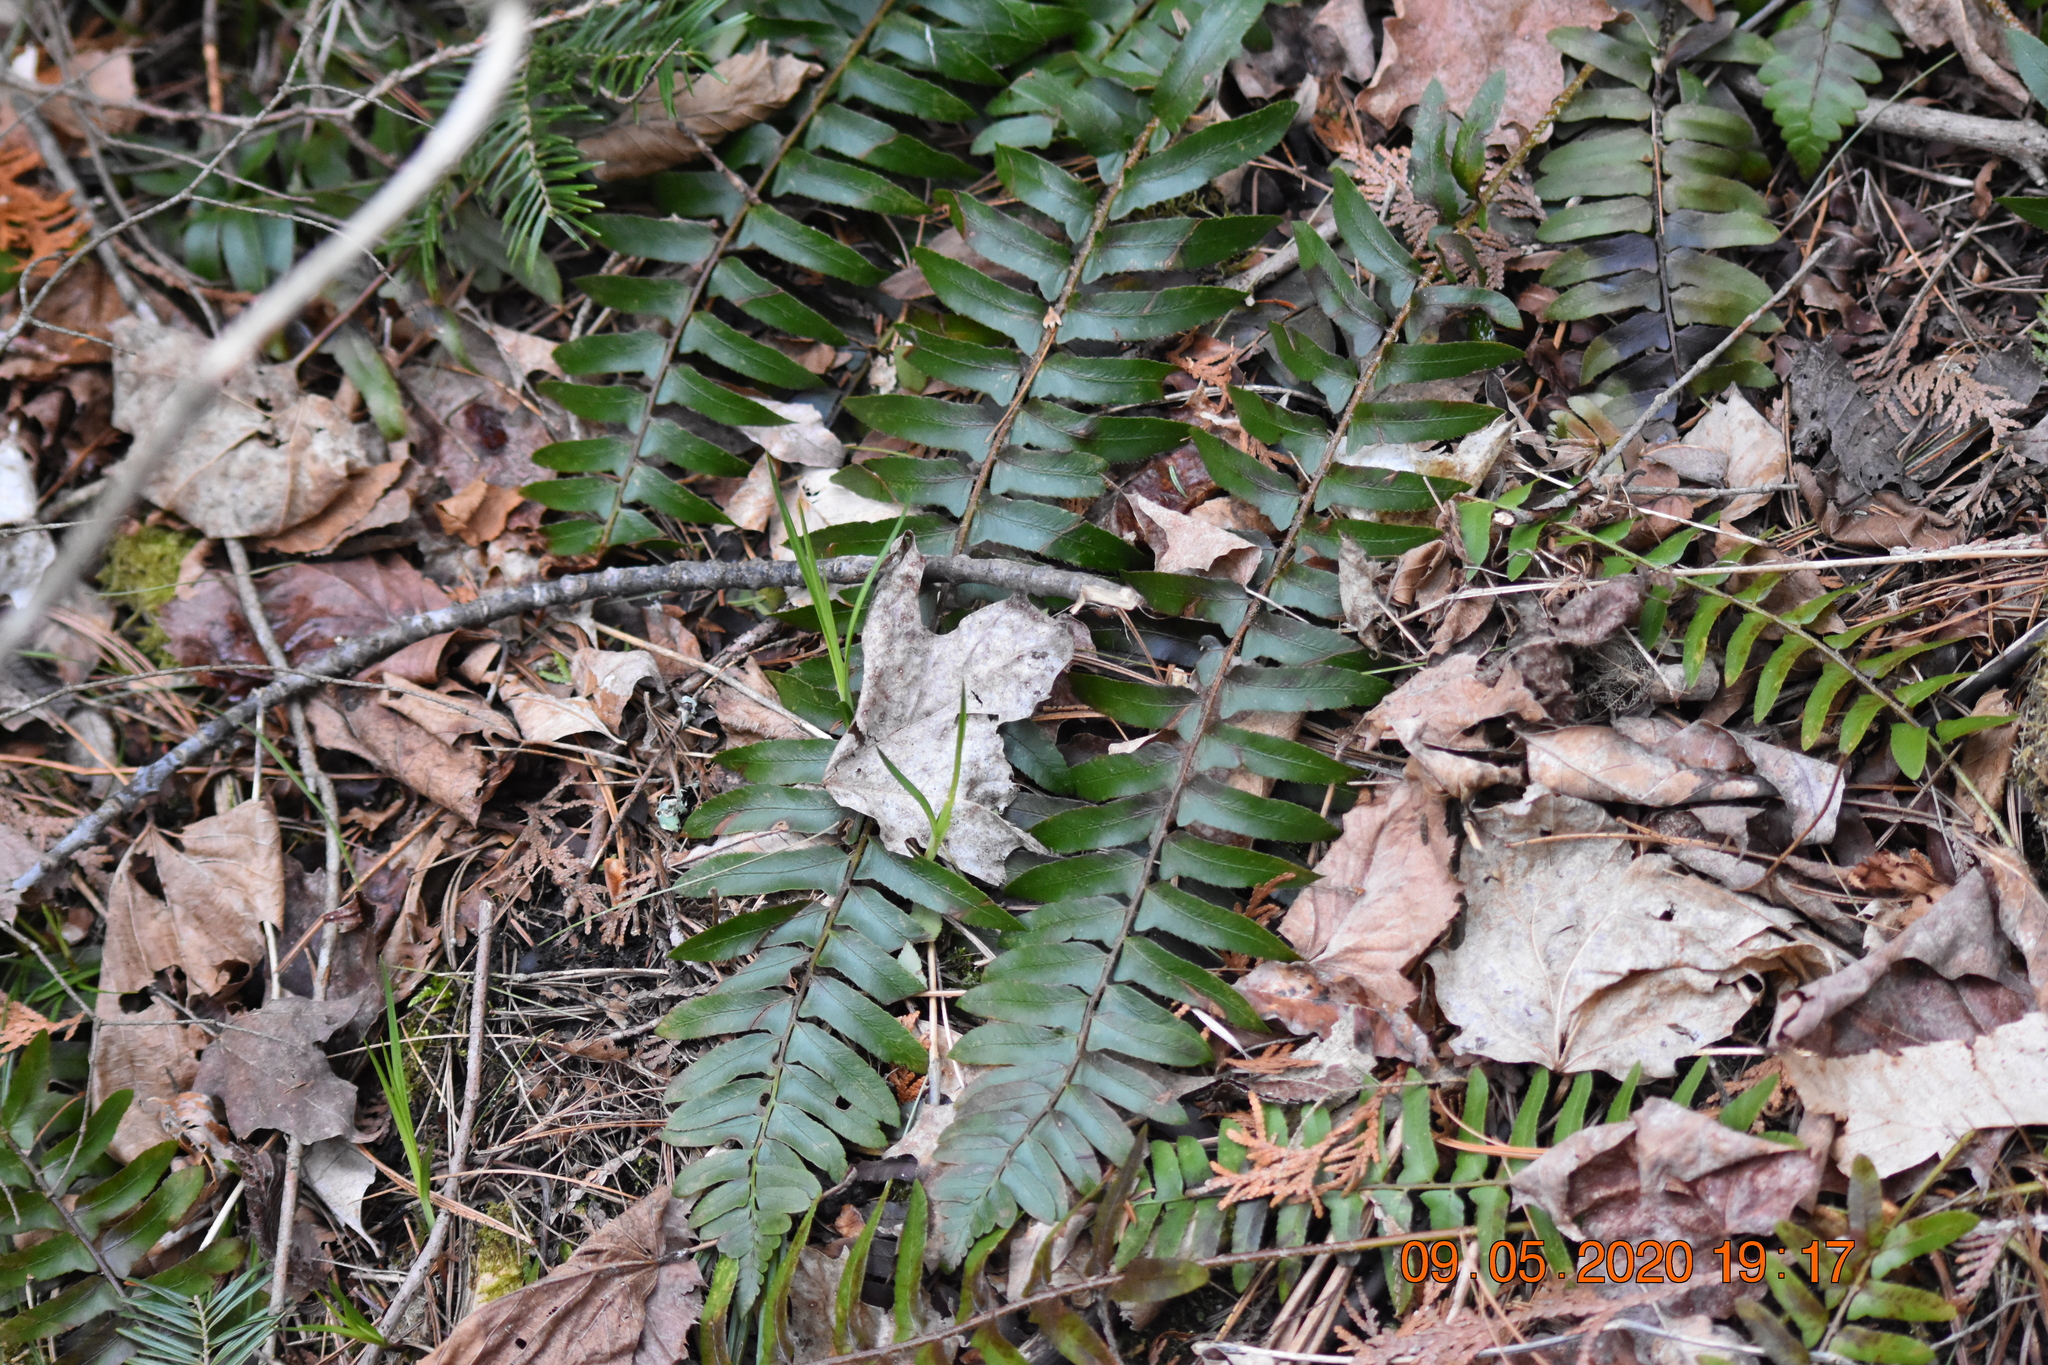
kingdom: Plantae
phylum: Tracheophyta
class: Polypodiopsida
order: Polypodiales
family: Dryopteridaceae
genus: Polystichum
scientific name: Polystichum acrostichoides
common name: Christmas fern
